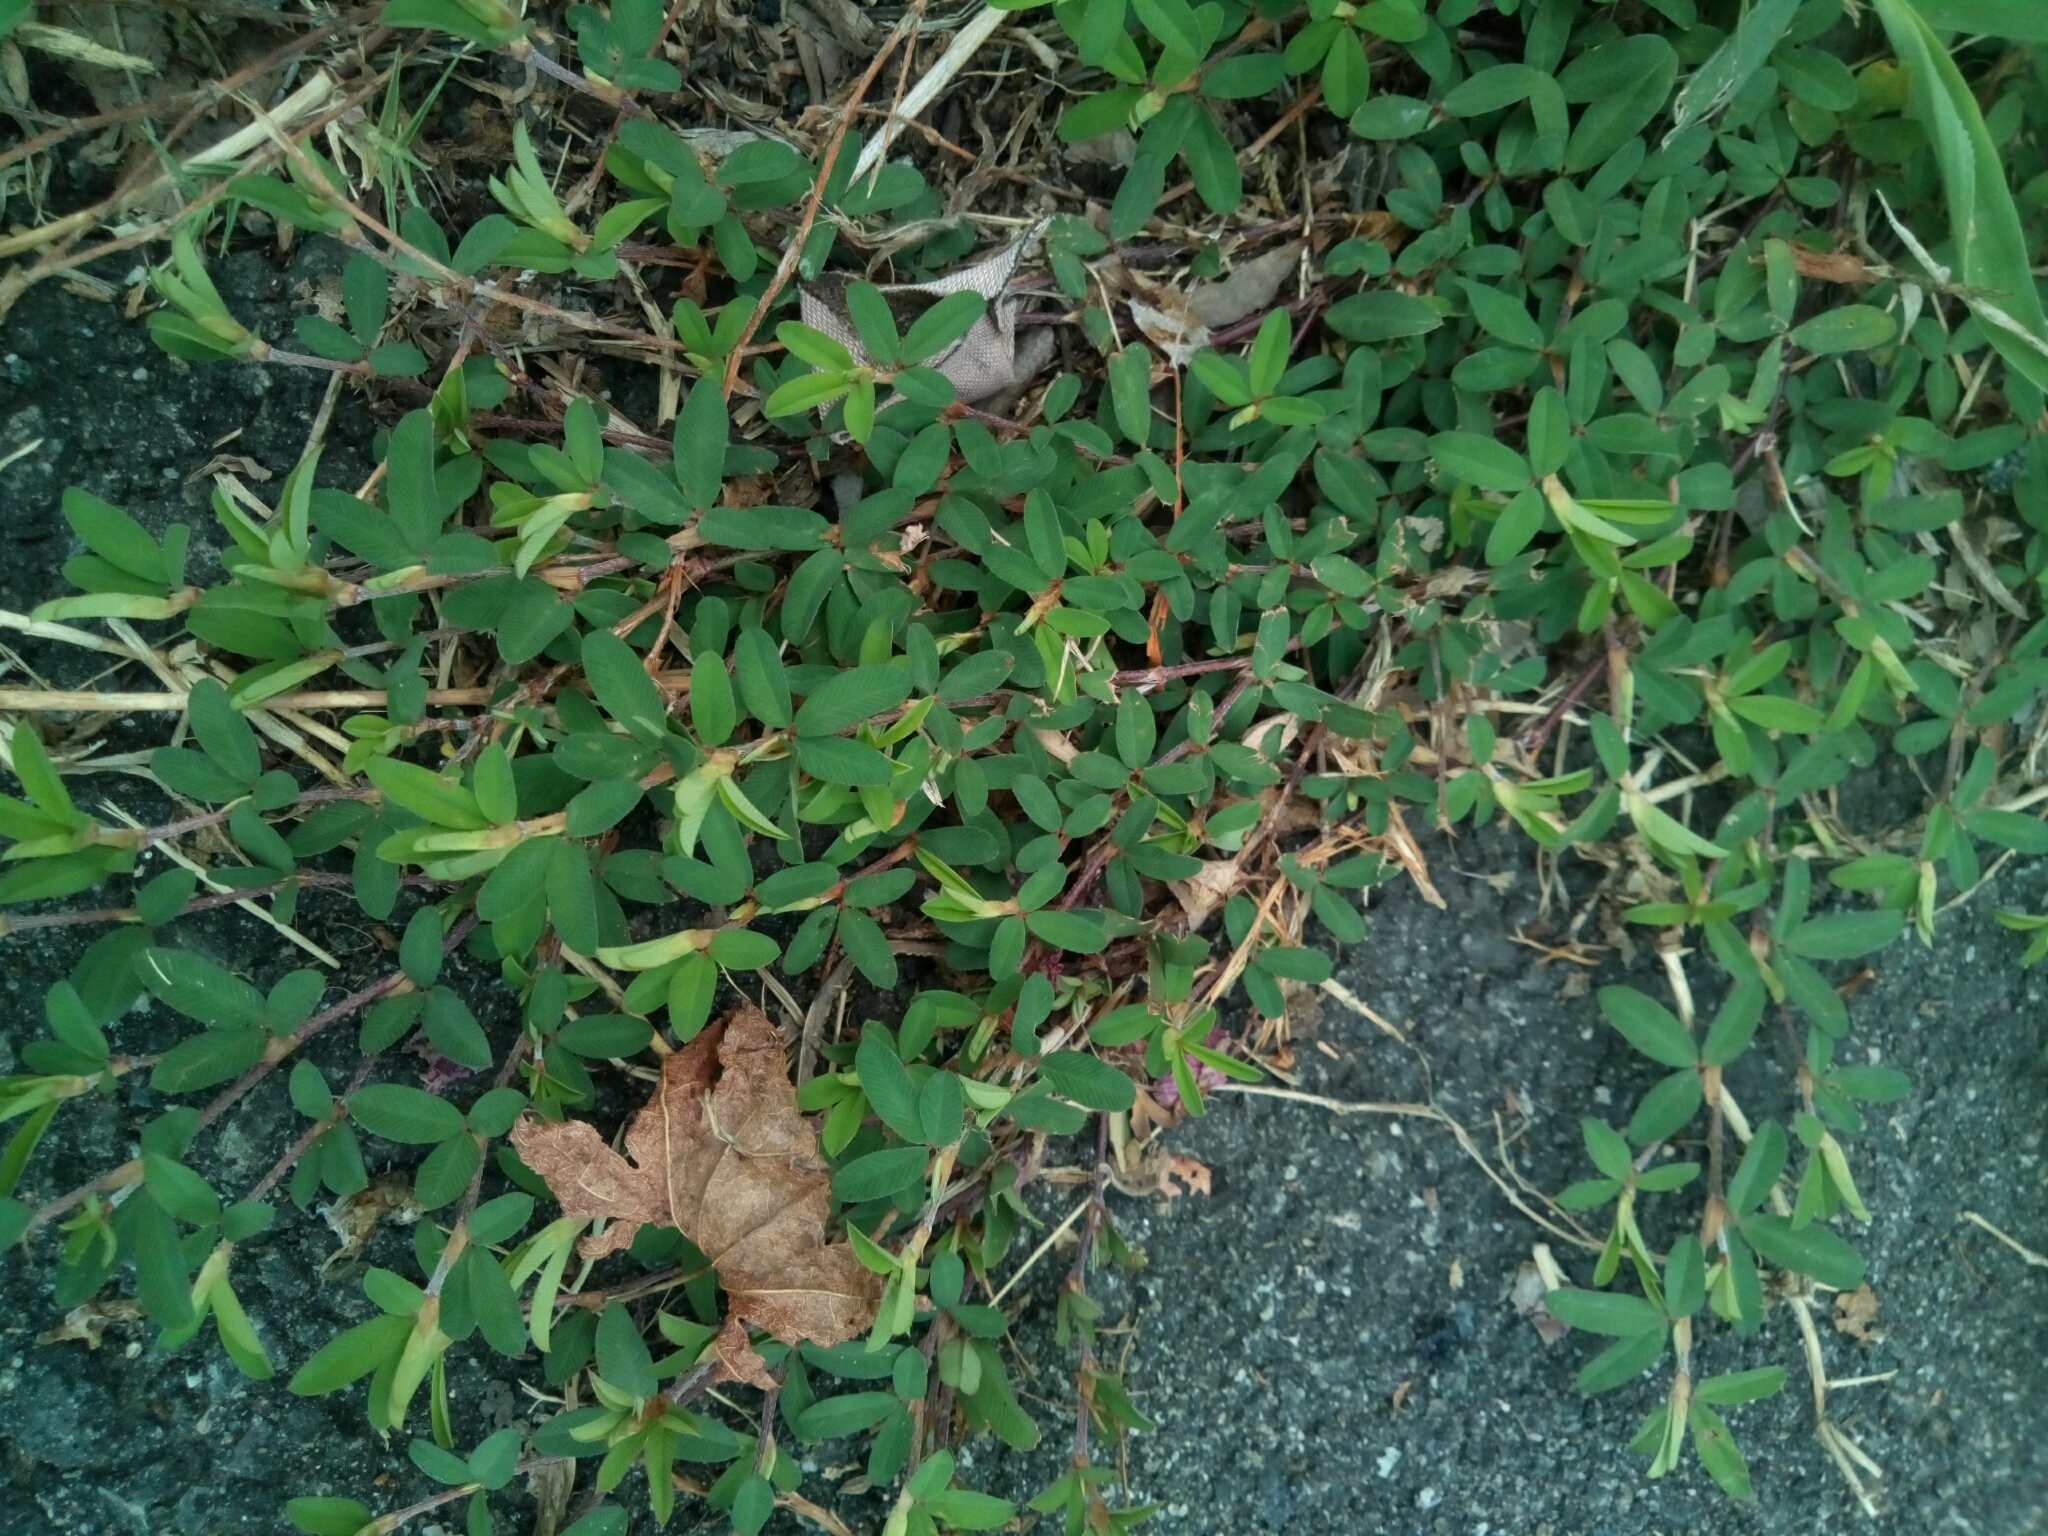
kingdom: Plantae
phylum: Tracheophyta
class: Magnoliopsida
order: Fabales
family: Fabaceae
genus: Kummerowia
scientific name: Kummerowia striata
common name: Japanese clover
